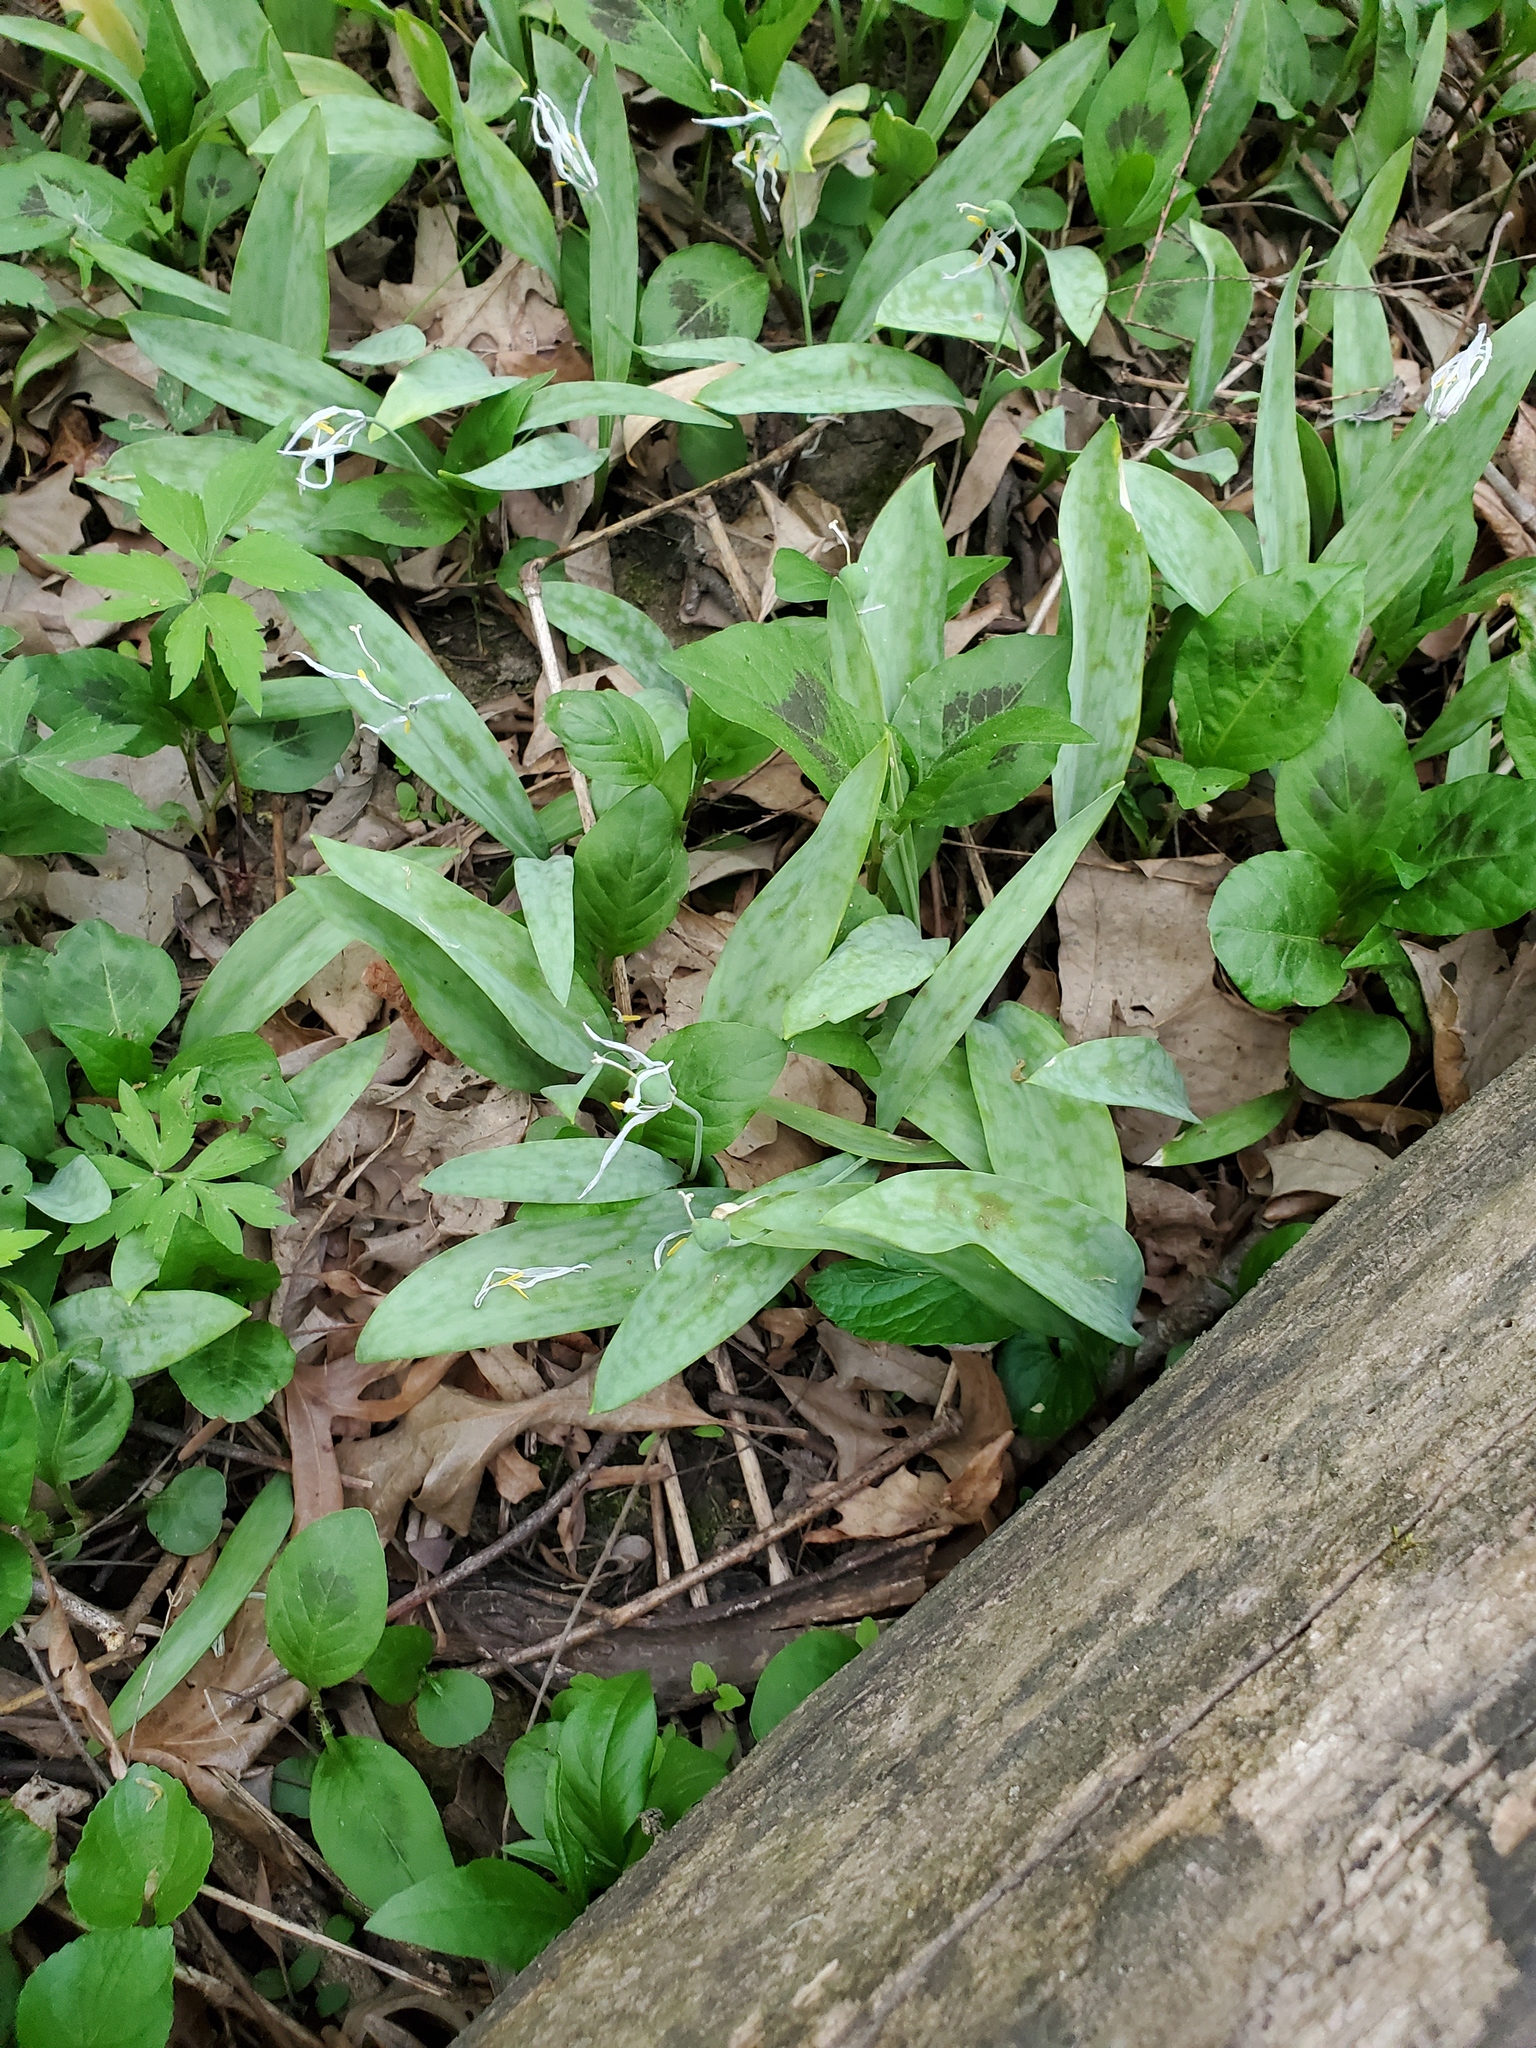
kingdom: Plantae
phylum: Tracheophyta
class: Liliopsida
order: Liliales
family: Liliaceae
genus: Erythronium
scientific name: Erythronium albidum
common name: White trout-lily
